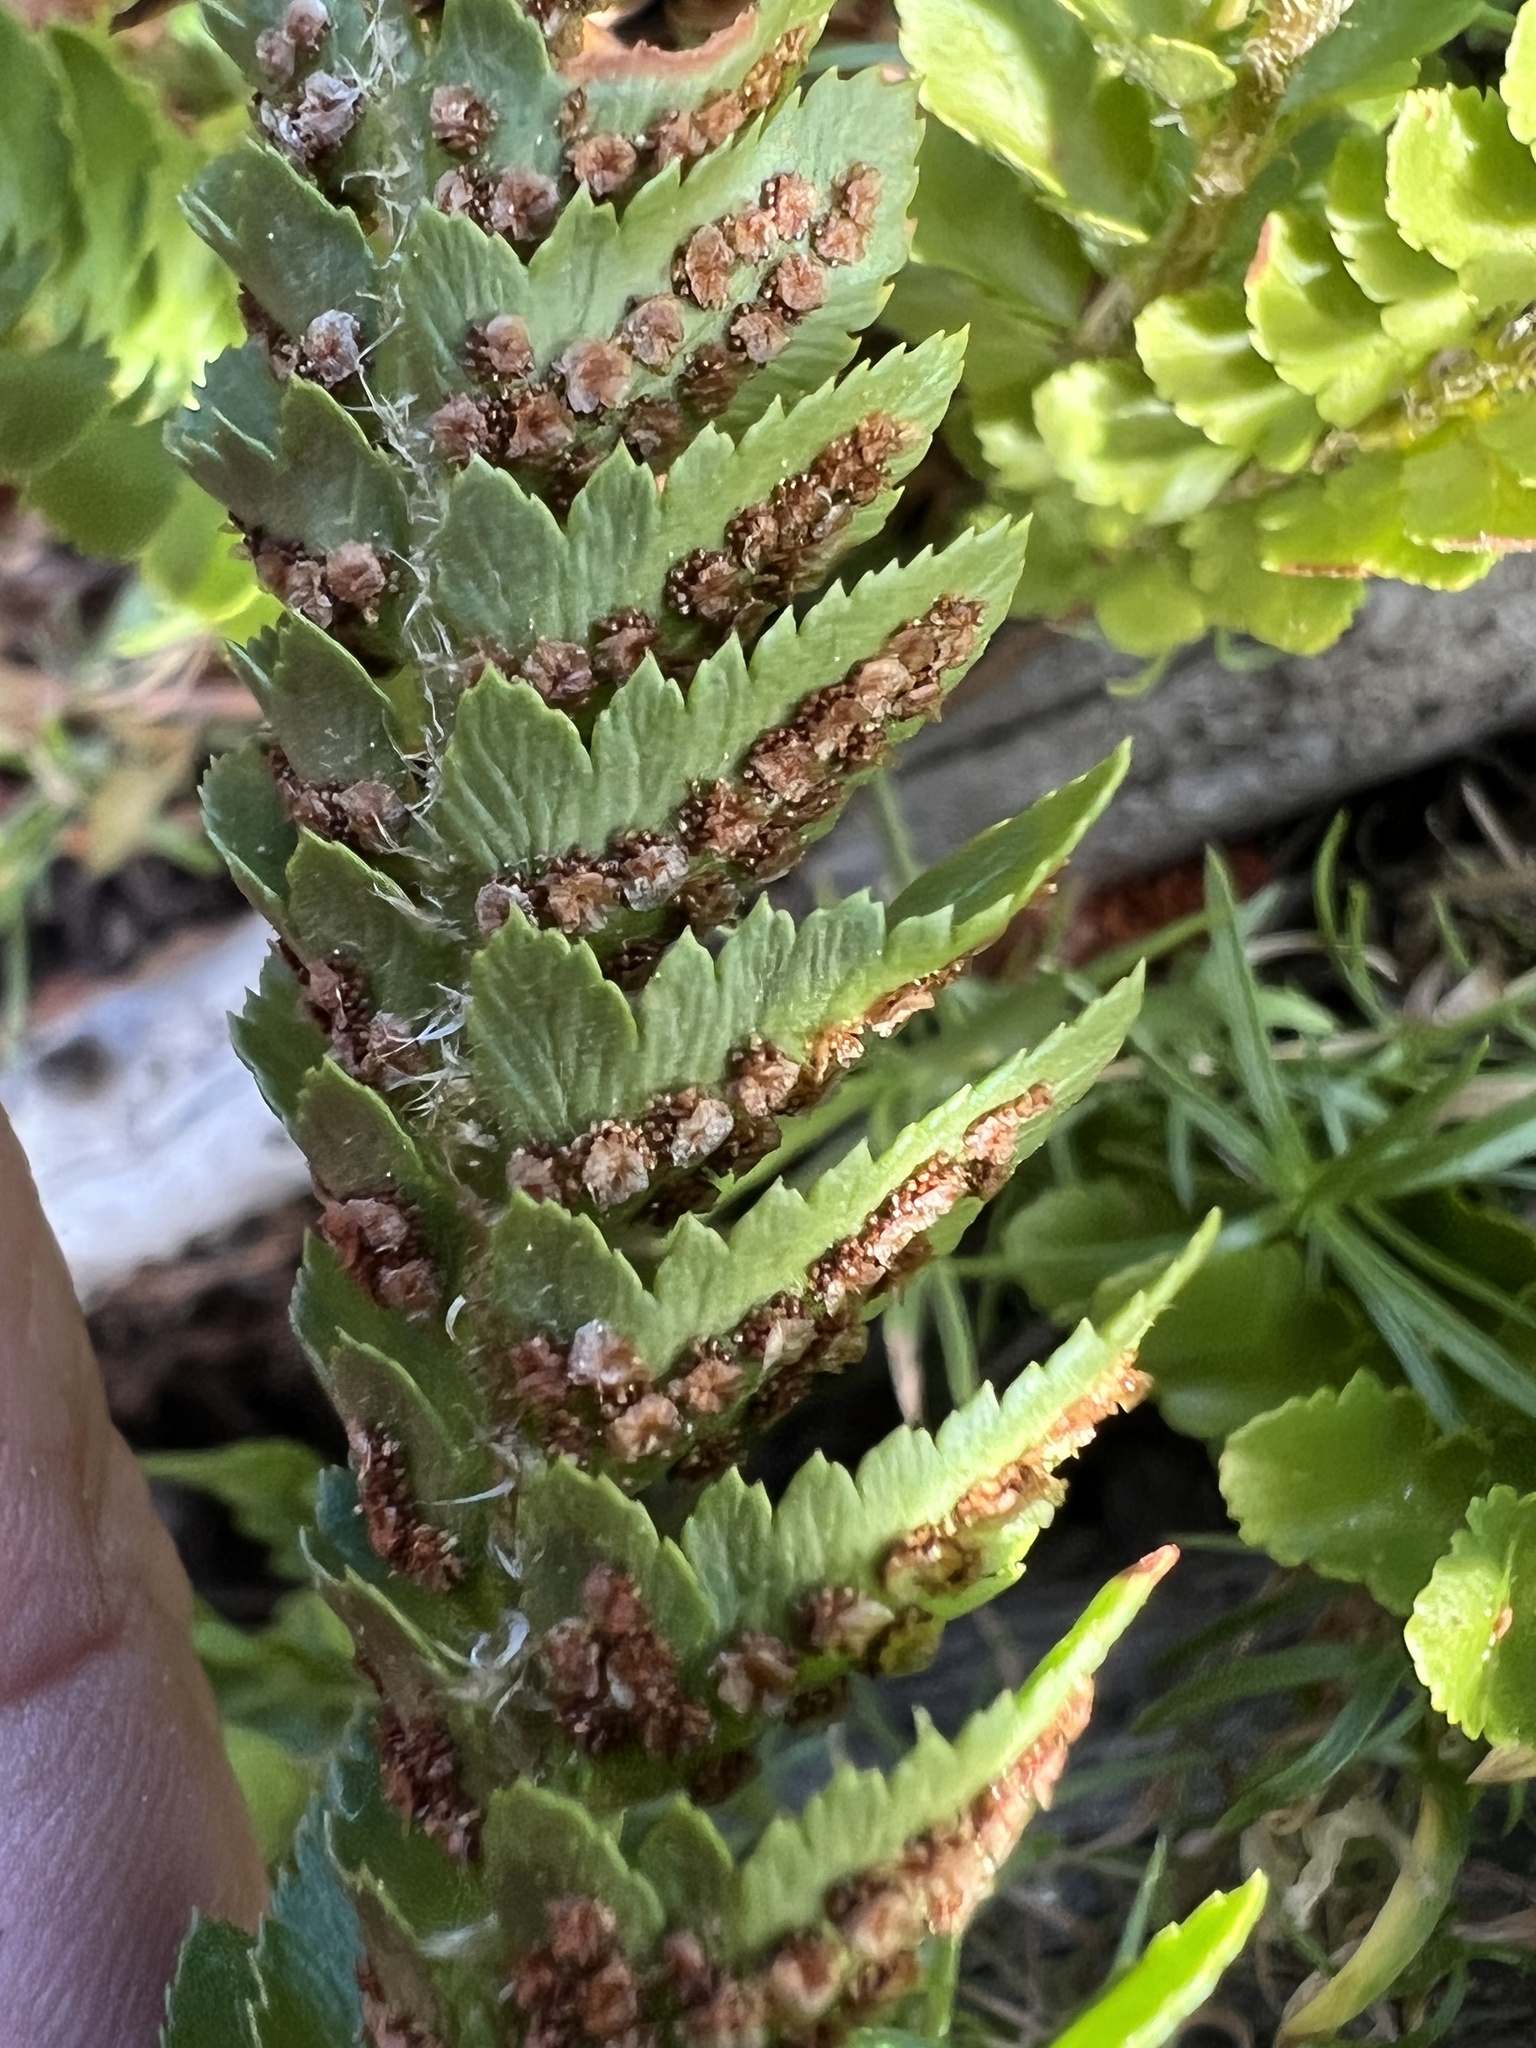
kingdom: Plantae
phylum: Tracheophyta
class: Polypodiopsida
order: Polypodiales
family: Dryopteridaceae
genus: Polystichum
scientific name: Polystichum scopulinum
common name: Eaton's shield fern
